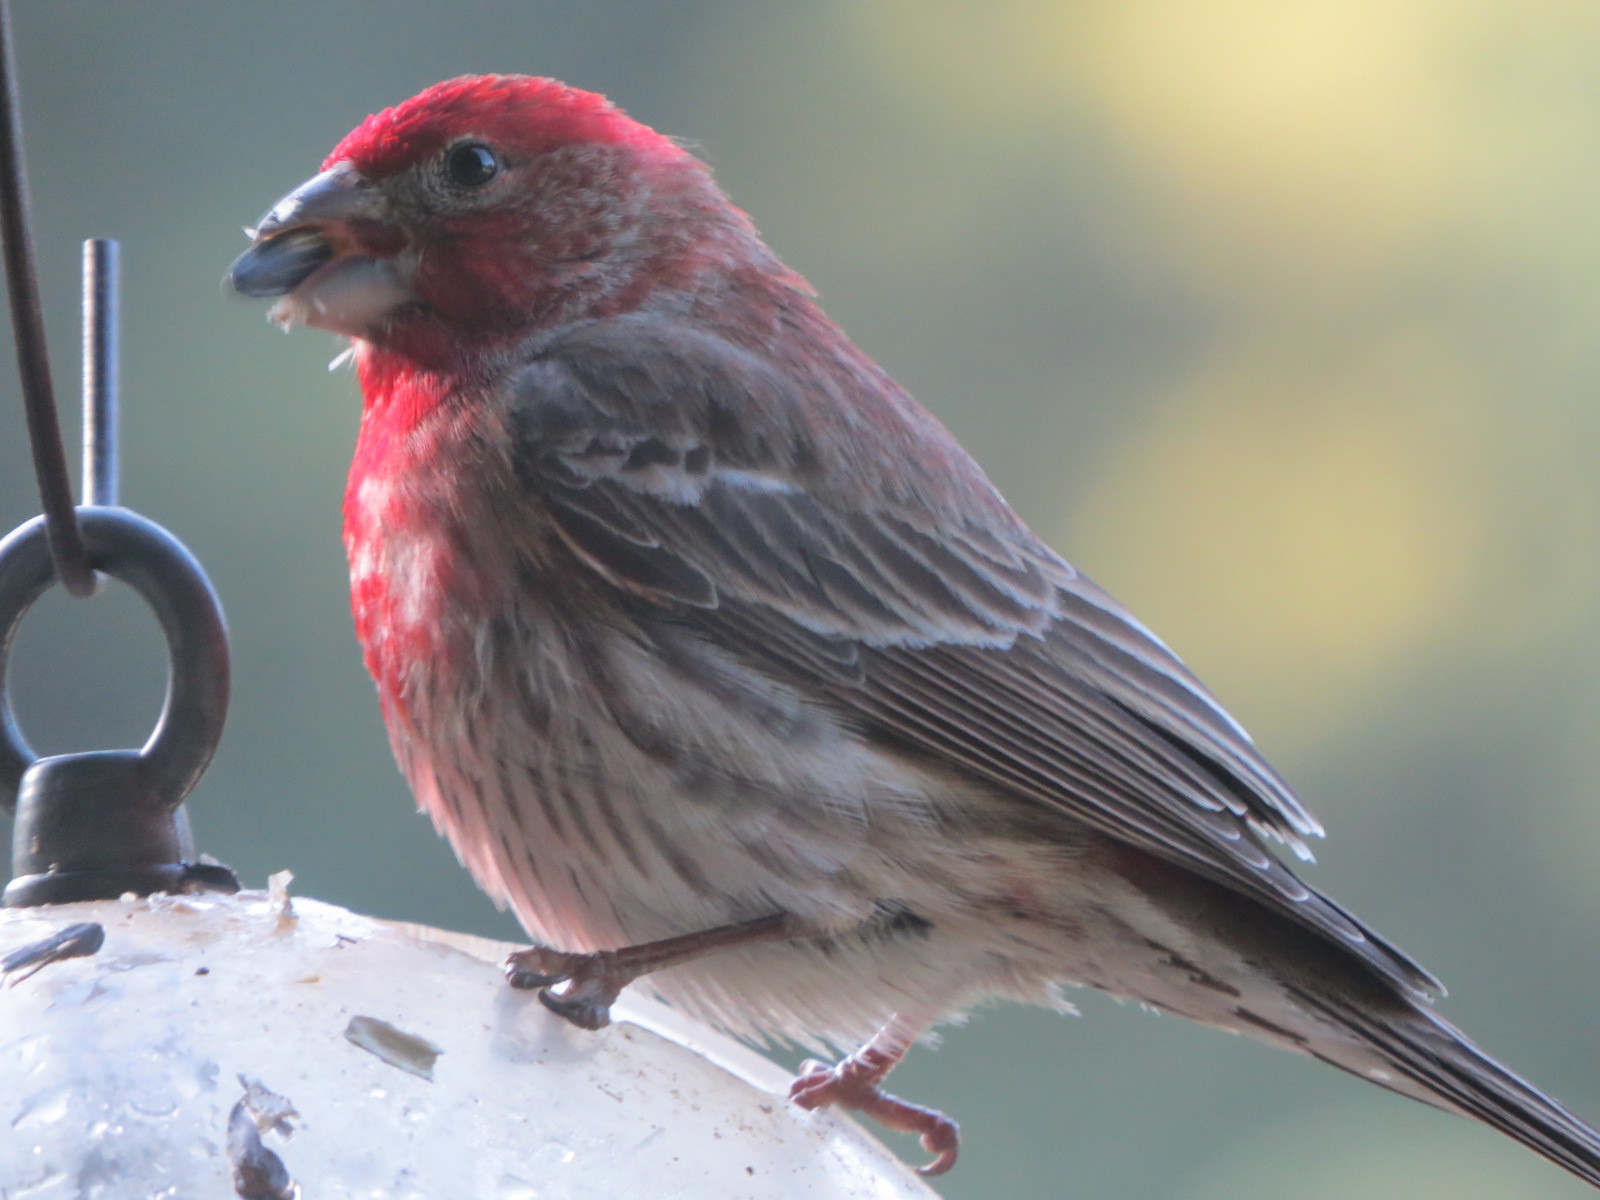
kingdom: Animalia
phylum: Chordata
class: Aves
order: Passeriformes
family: Fringillidae
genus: Haemorhous
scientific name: Haemorhous mexicanus
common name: House finch
